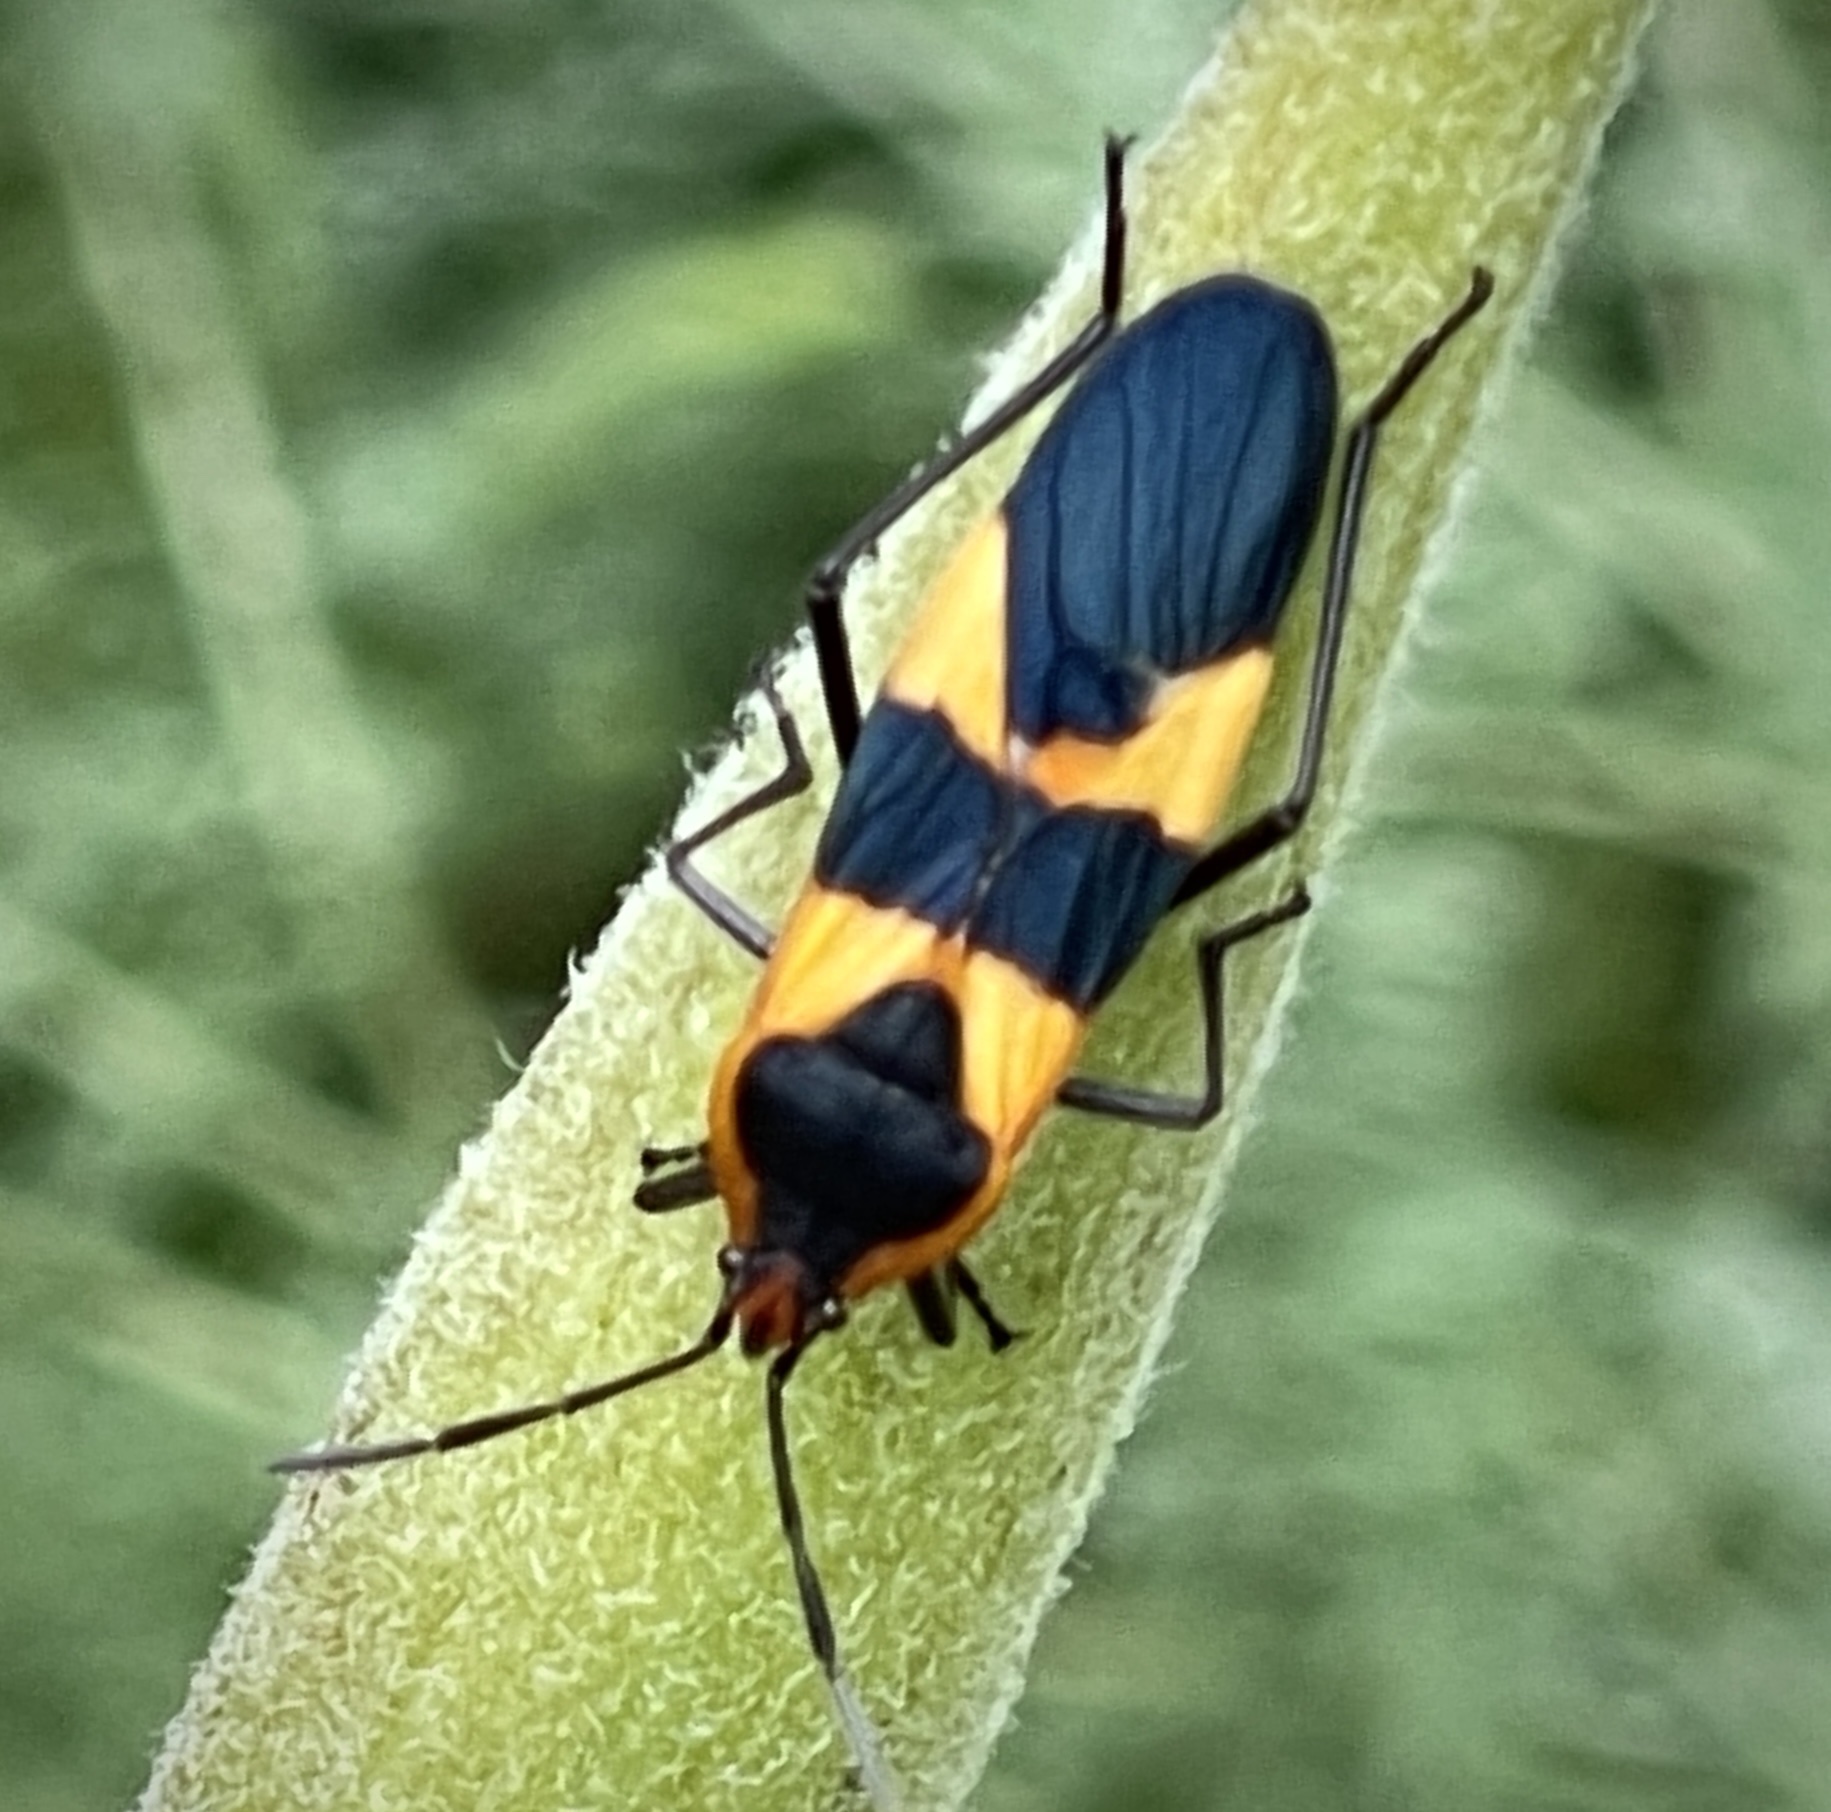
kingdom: Animalia
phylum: Arthropoda
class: Insecta
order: Hemiptera
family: Lygaeidae
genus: Oncopeltus
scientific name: Oncopeltus fasciatus
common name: Large milkweed bug
